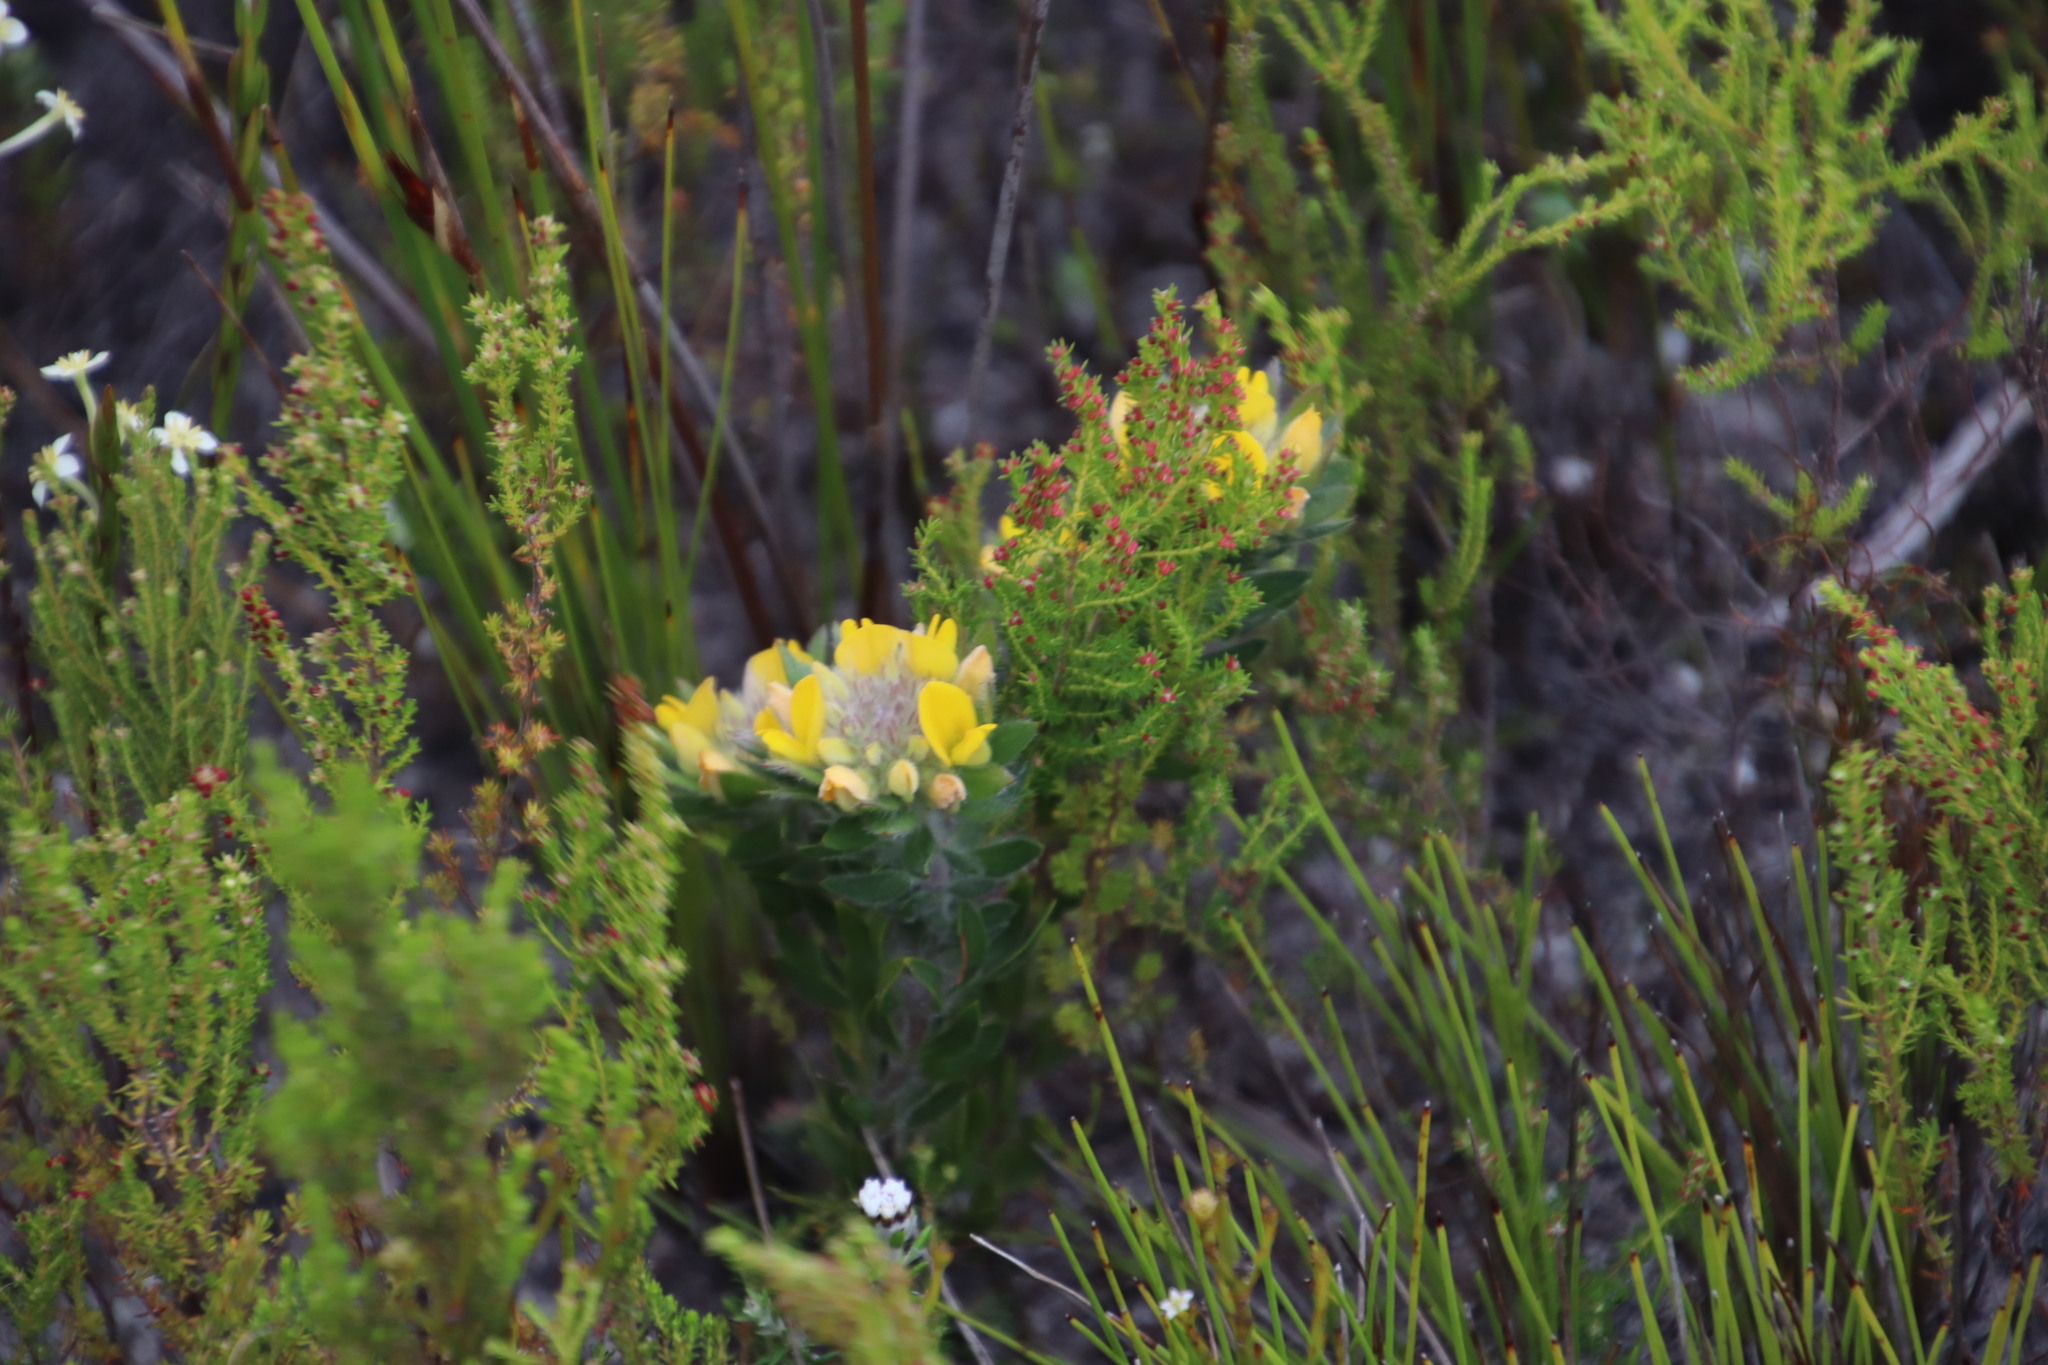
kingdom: Plantae
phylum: Tracheophyta
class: Magnoliopsida
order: Fabales
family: Fabaceae
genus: Aspalathus
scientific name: Aspalathus aspalathoides
